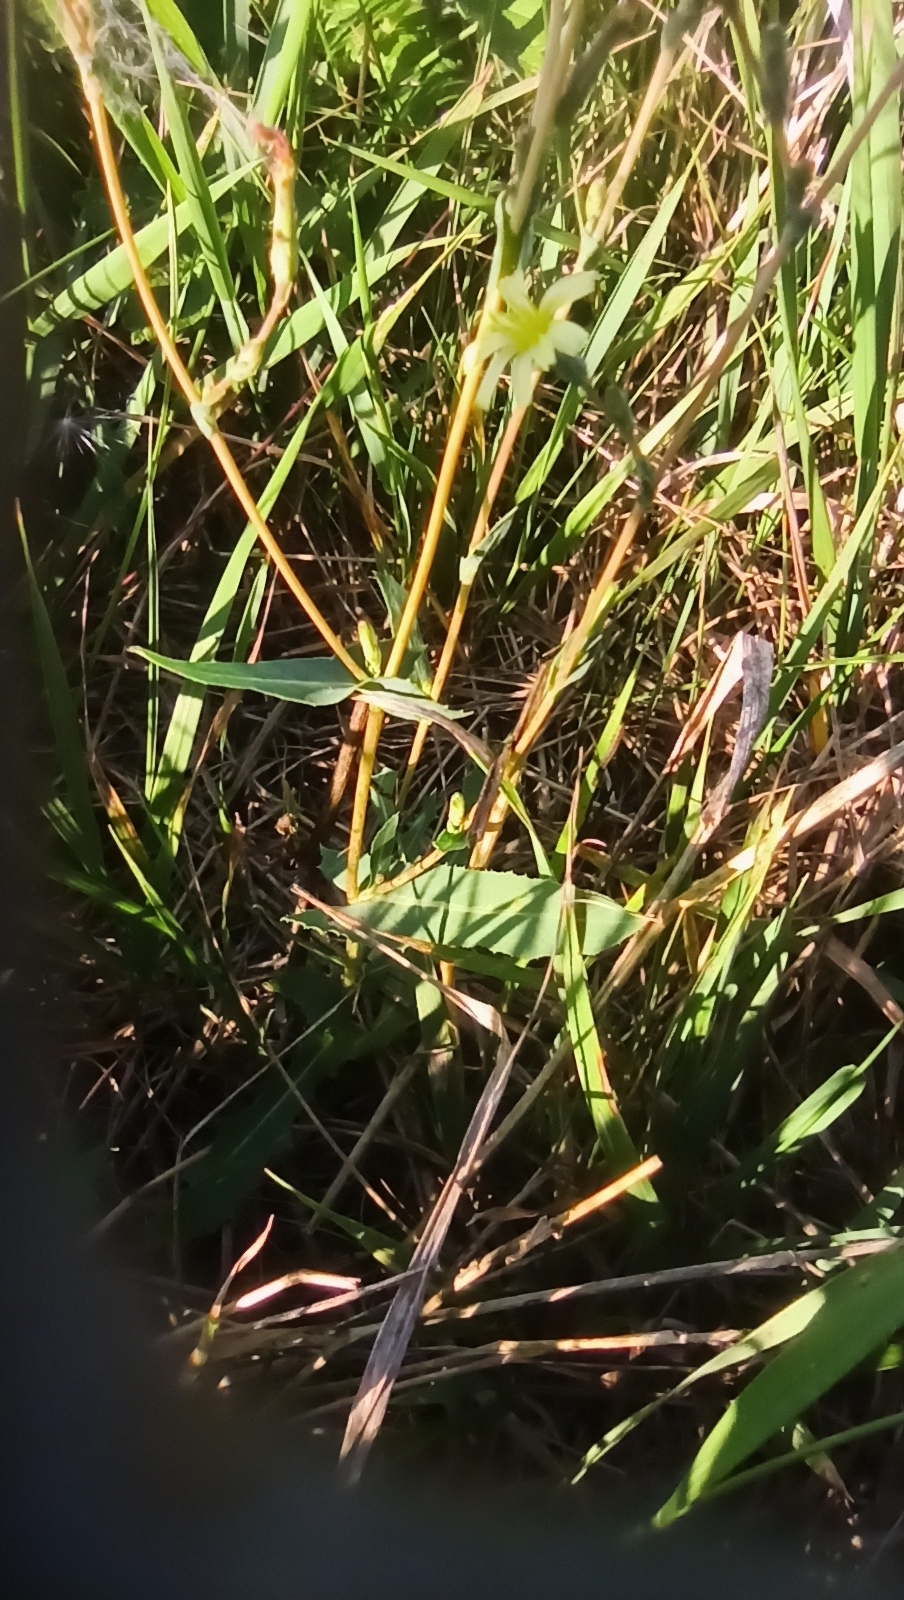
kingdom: Plantae
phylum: Tracheophyta
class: Magnoliopsida
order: Asterales
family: Asteraceae
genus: Lactuca
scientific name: Lactuca serriola
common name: Prickly lettuce
